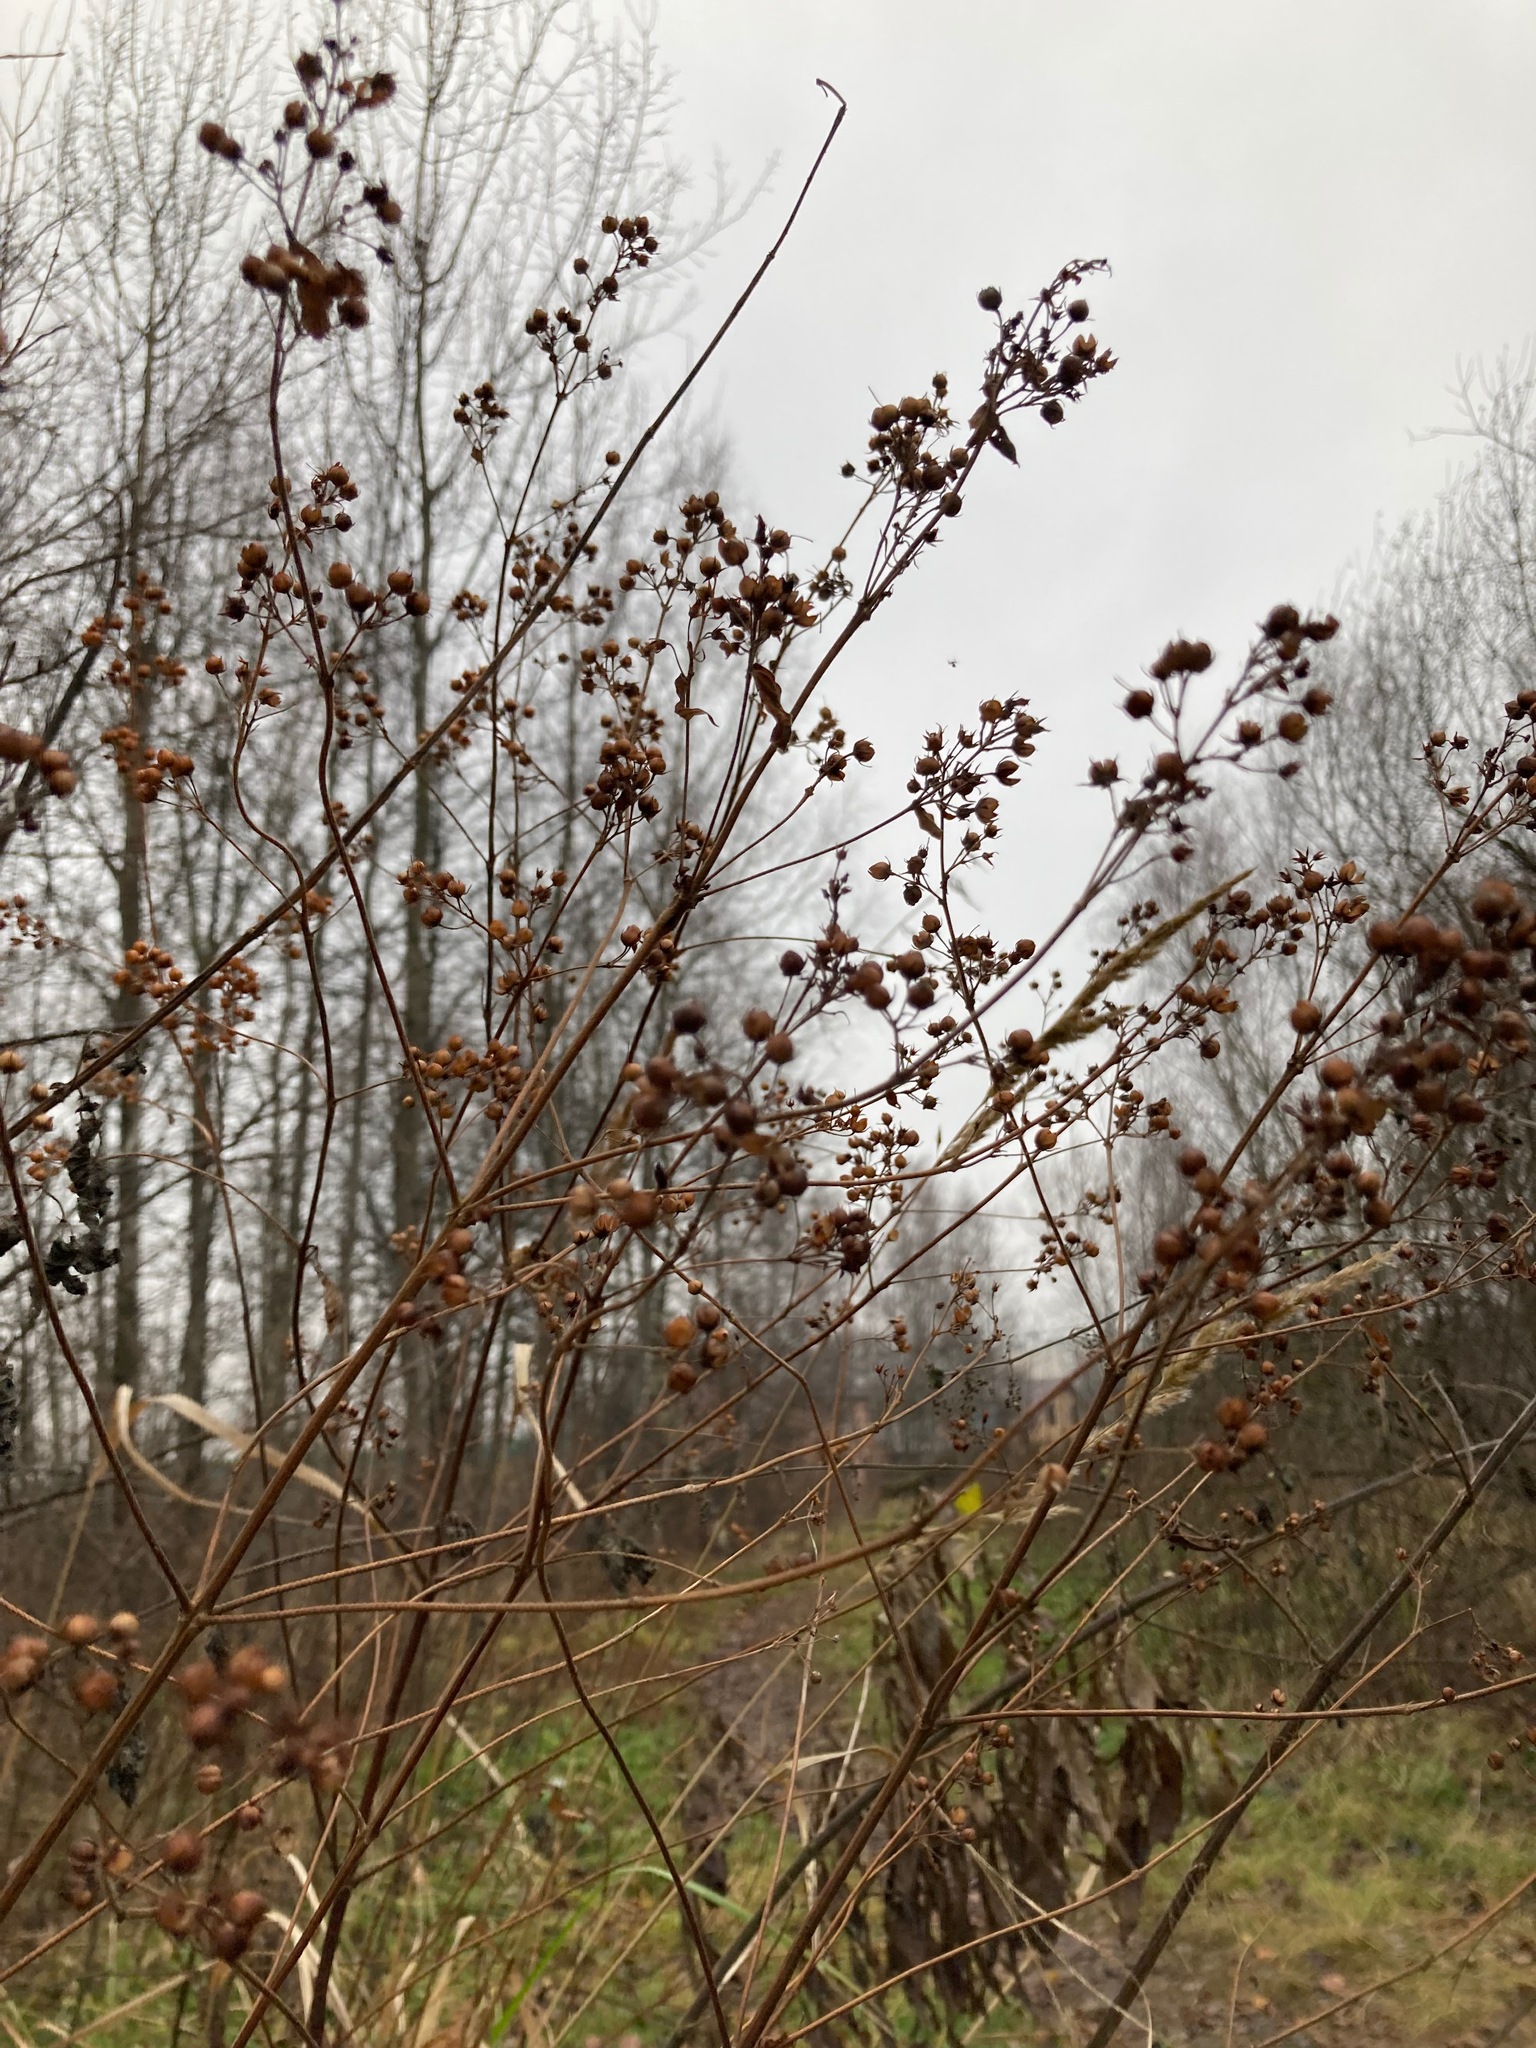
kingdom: Plantae
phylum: Tracheophyta
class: Magnoliopsida
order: Ericales
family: Primulaceae
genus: Lysimachia
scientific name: Lysimachia vulgaris
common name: Yellow loosestrife
